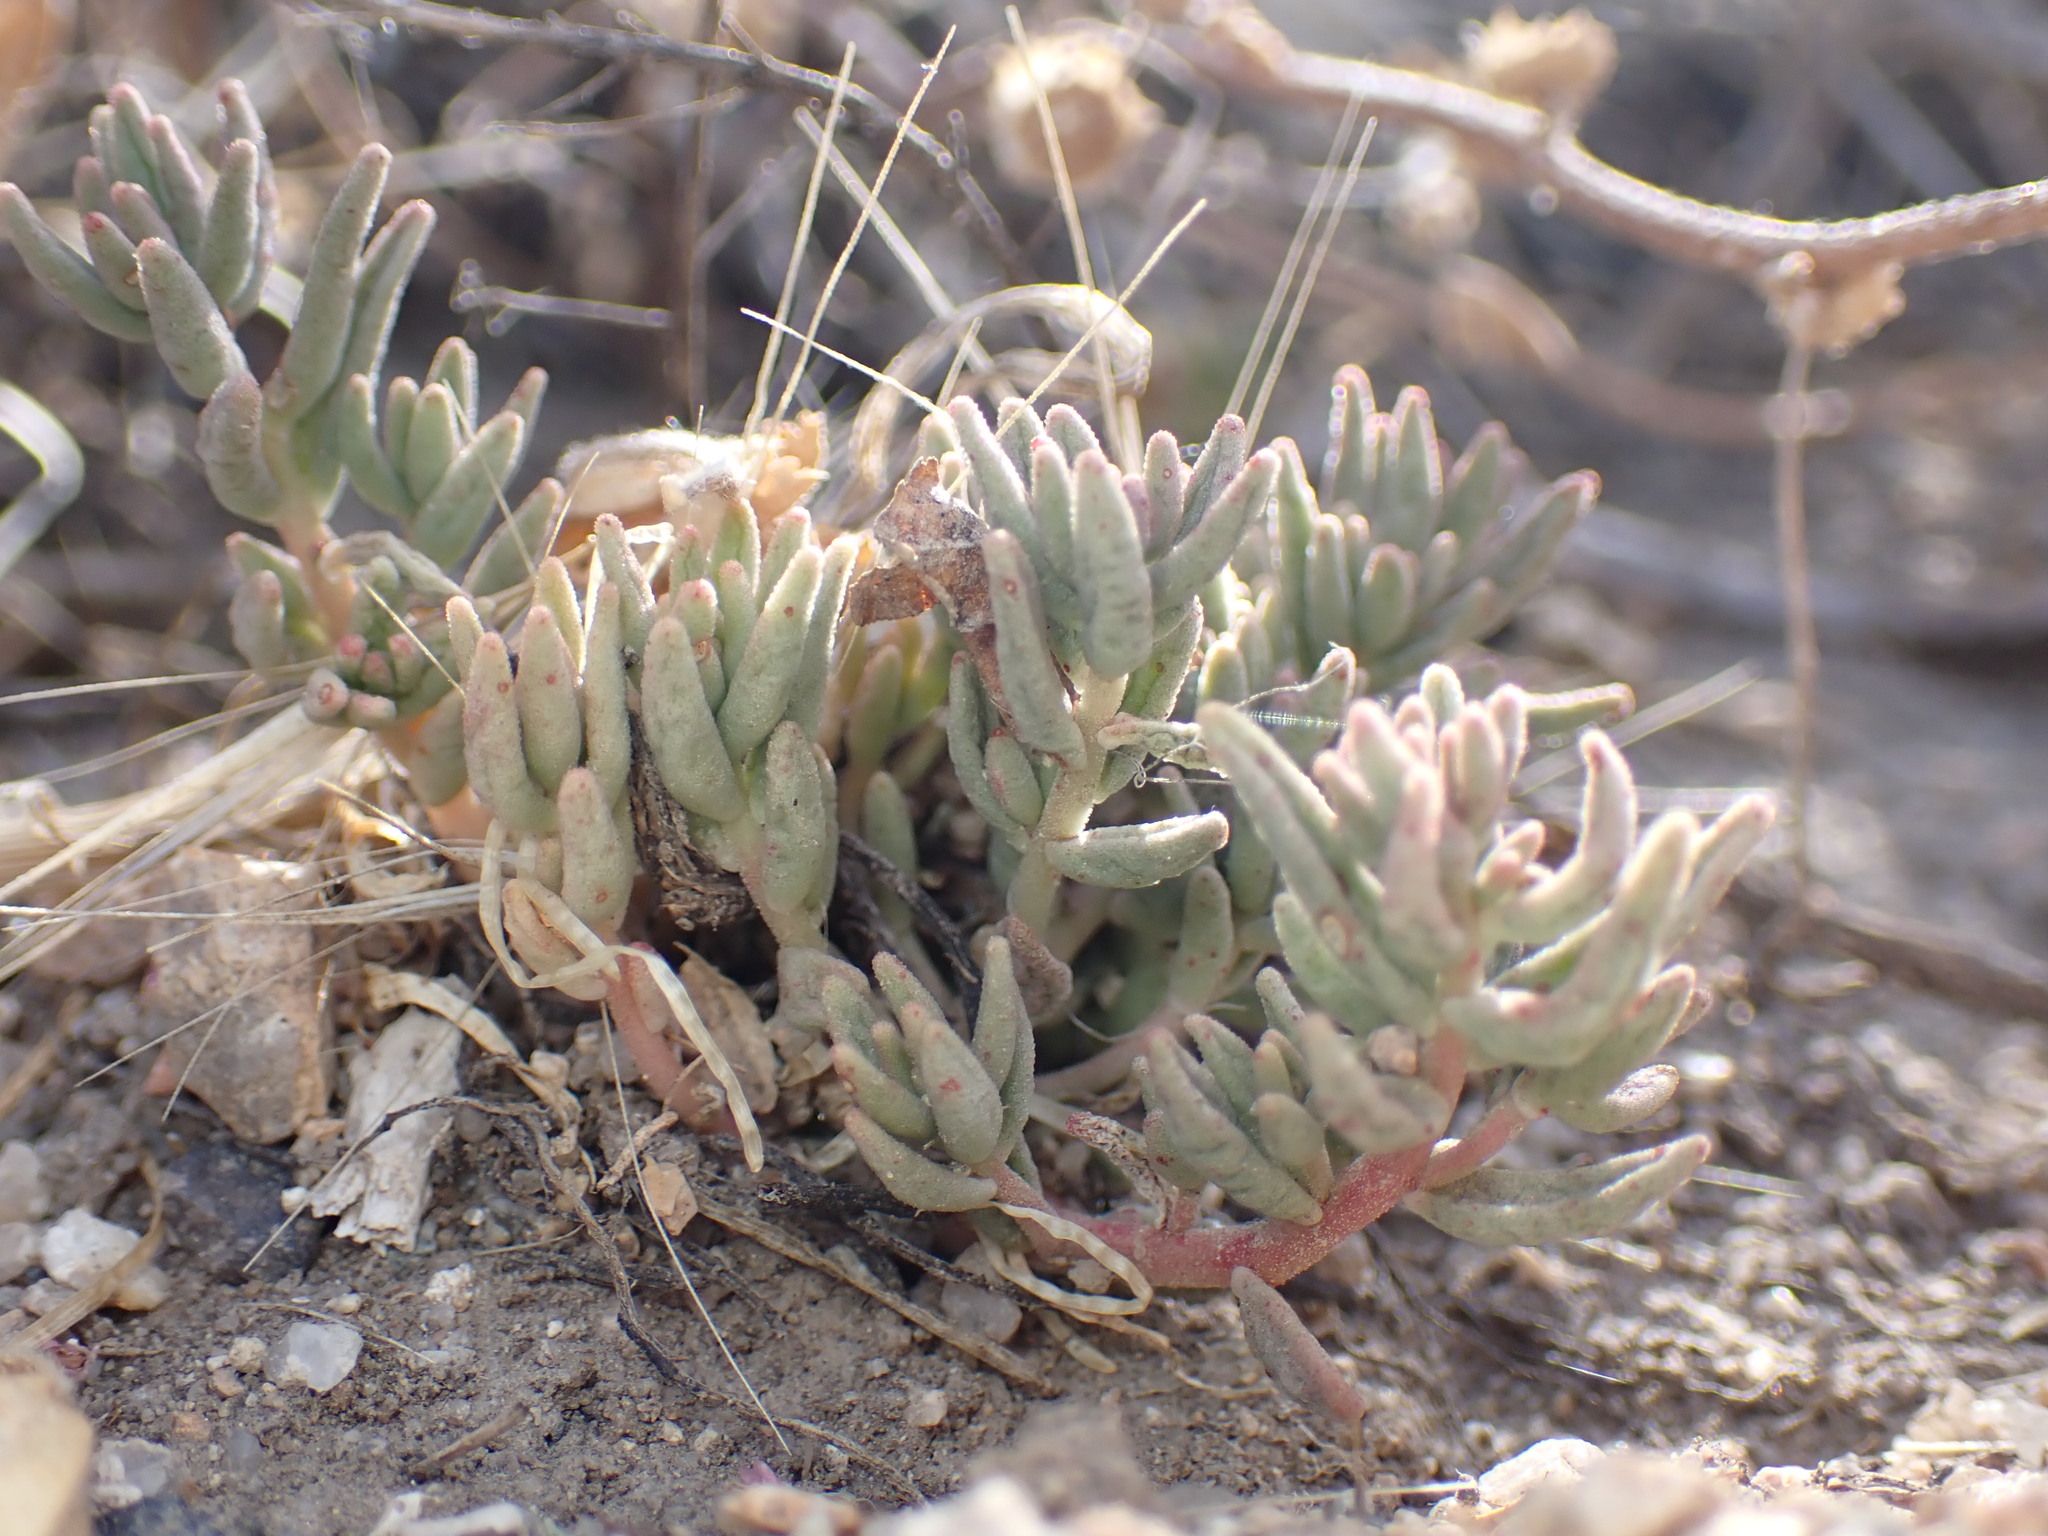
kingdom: Plantae
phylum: Tracheophyta
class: Magnoliopsida
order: Saxifragales
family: Crassulaceae
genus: Sedum
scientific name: Sedum album
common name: White stonecrop
